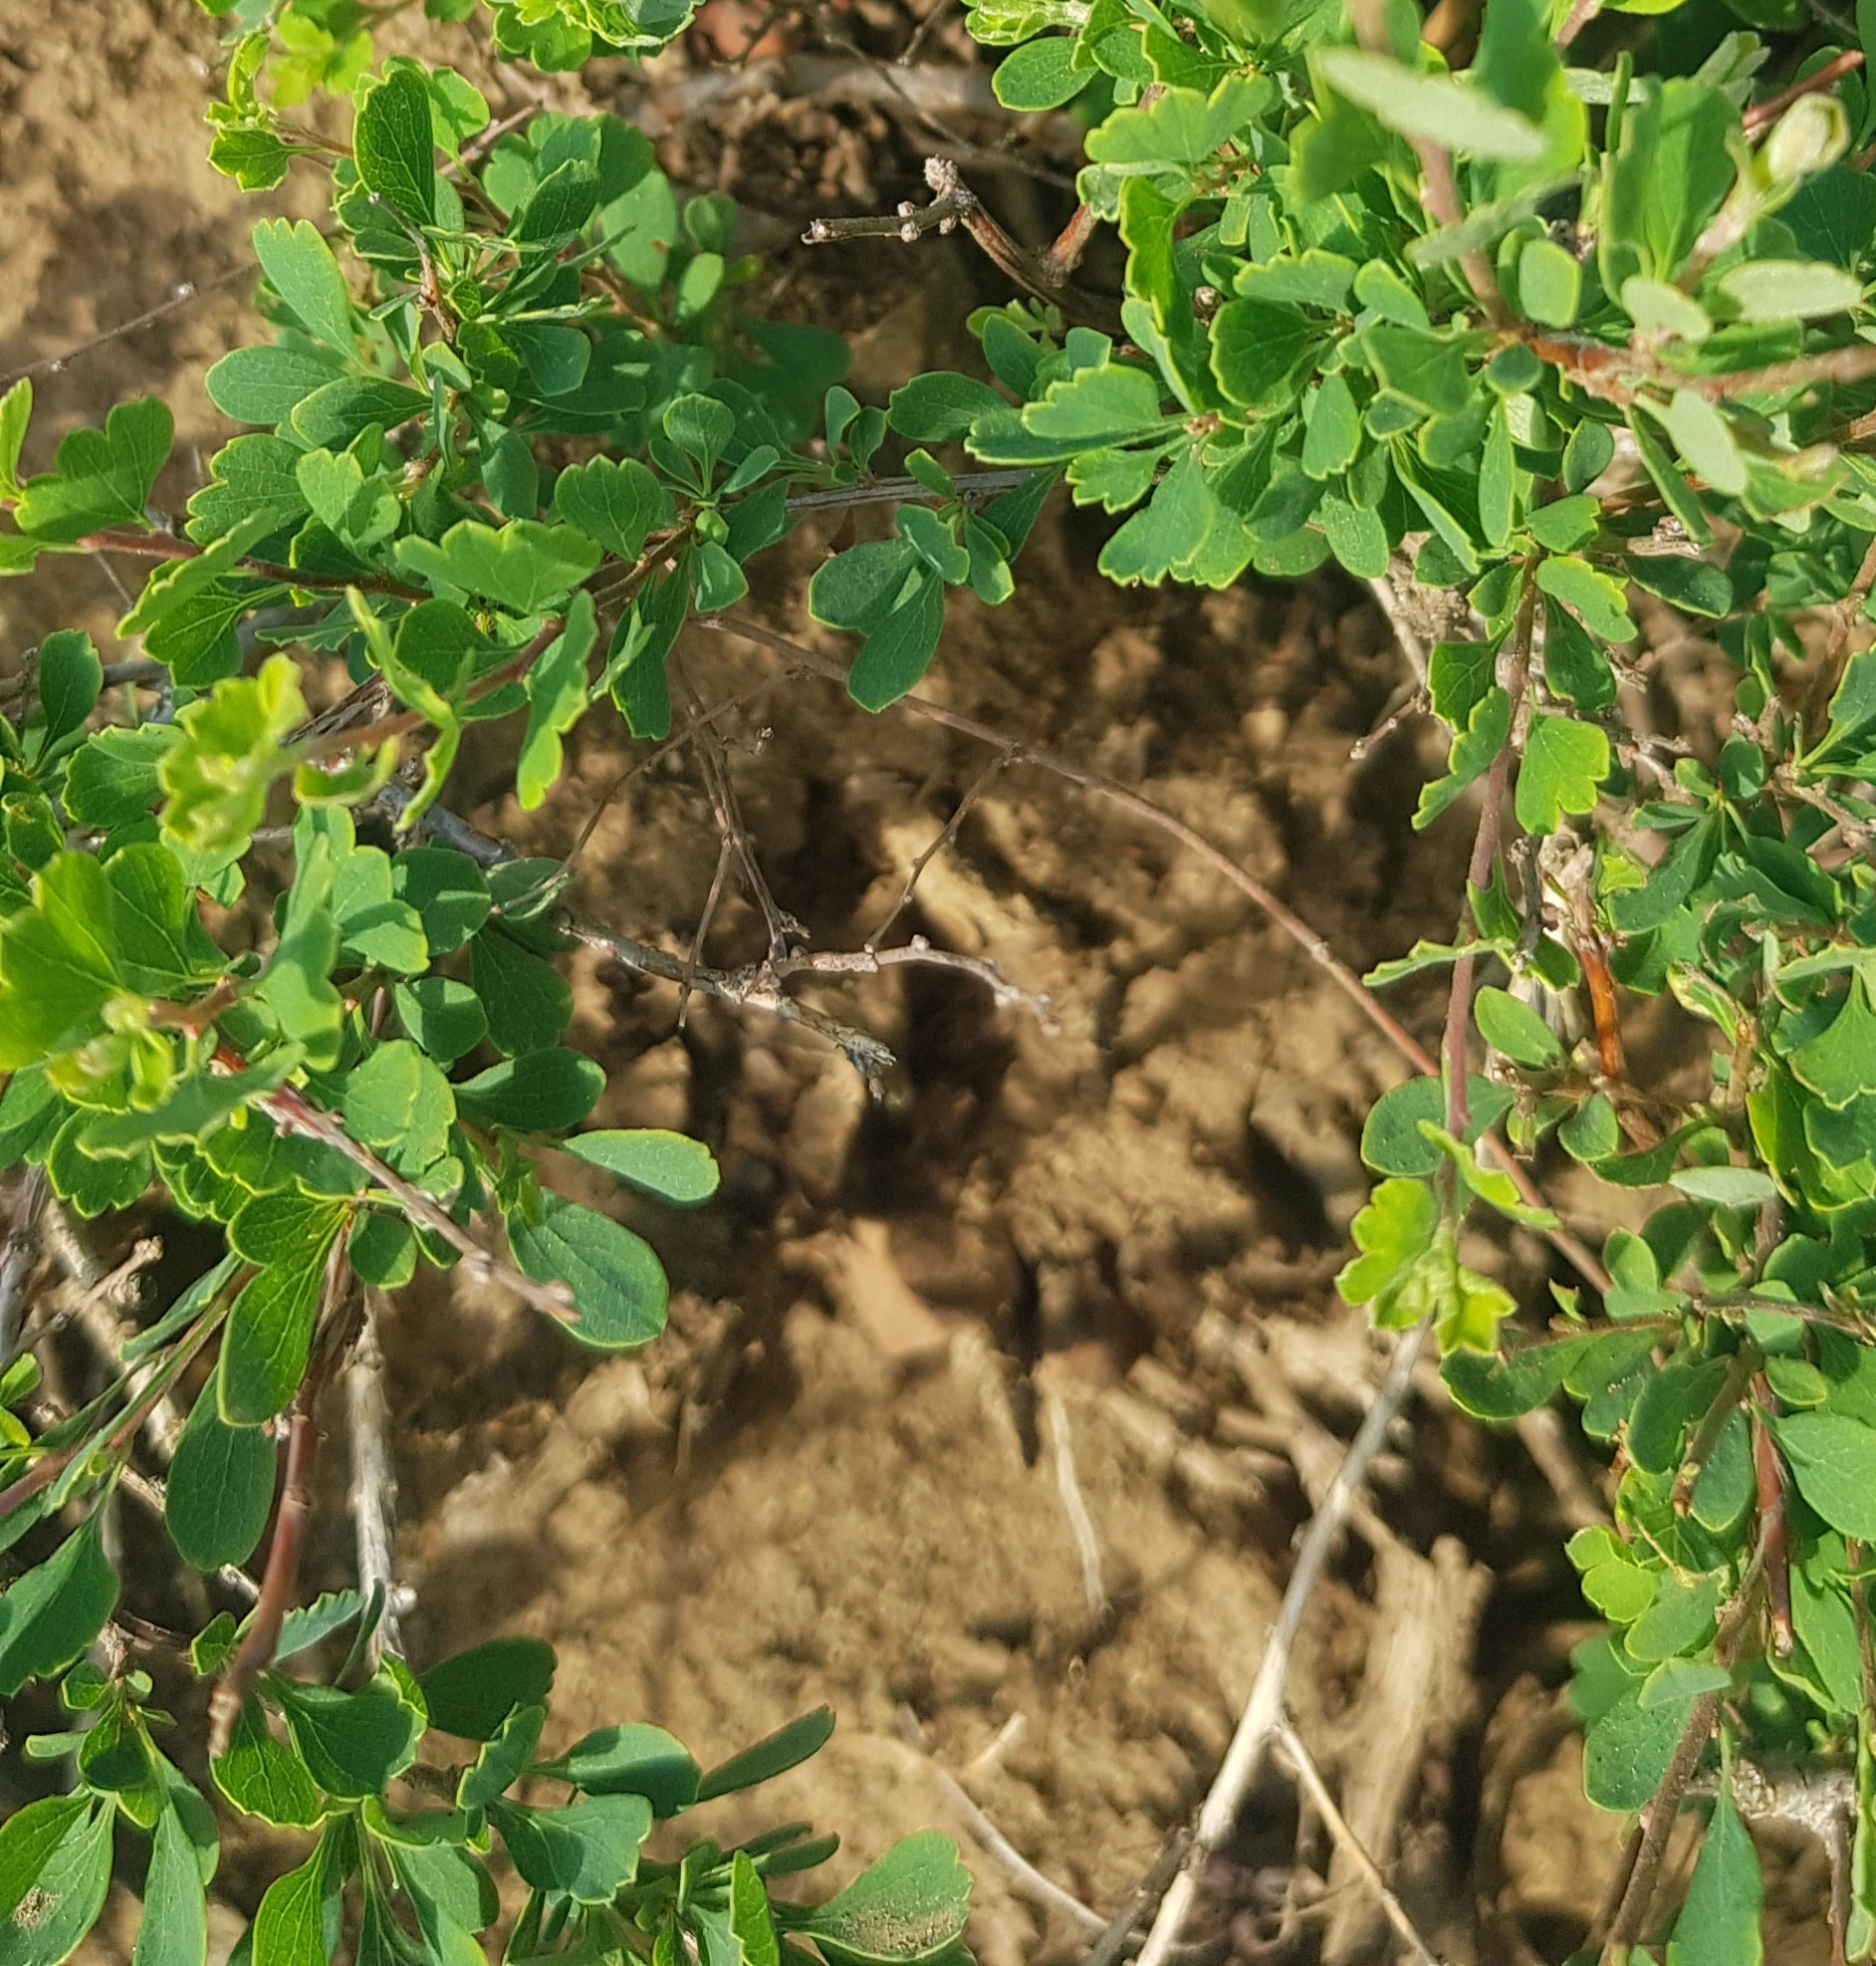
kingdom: Plantae
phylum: Tracheophyta
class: Magnoliopsida
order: Rosales
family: Rosaceae
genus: Spiraea
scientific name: Spiraea aquilegifolia
